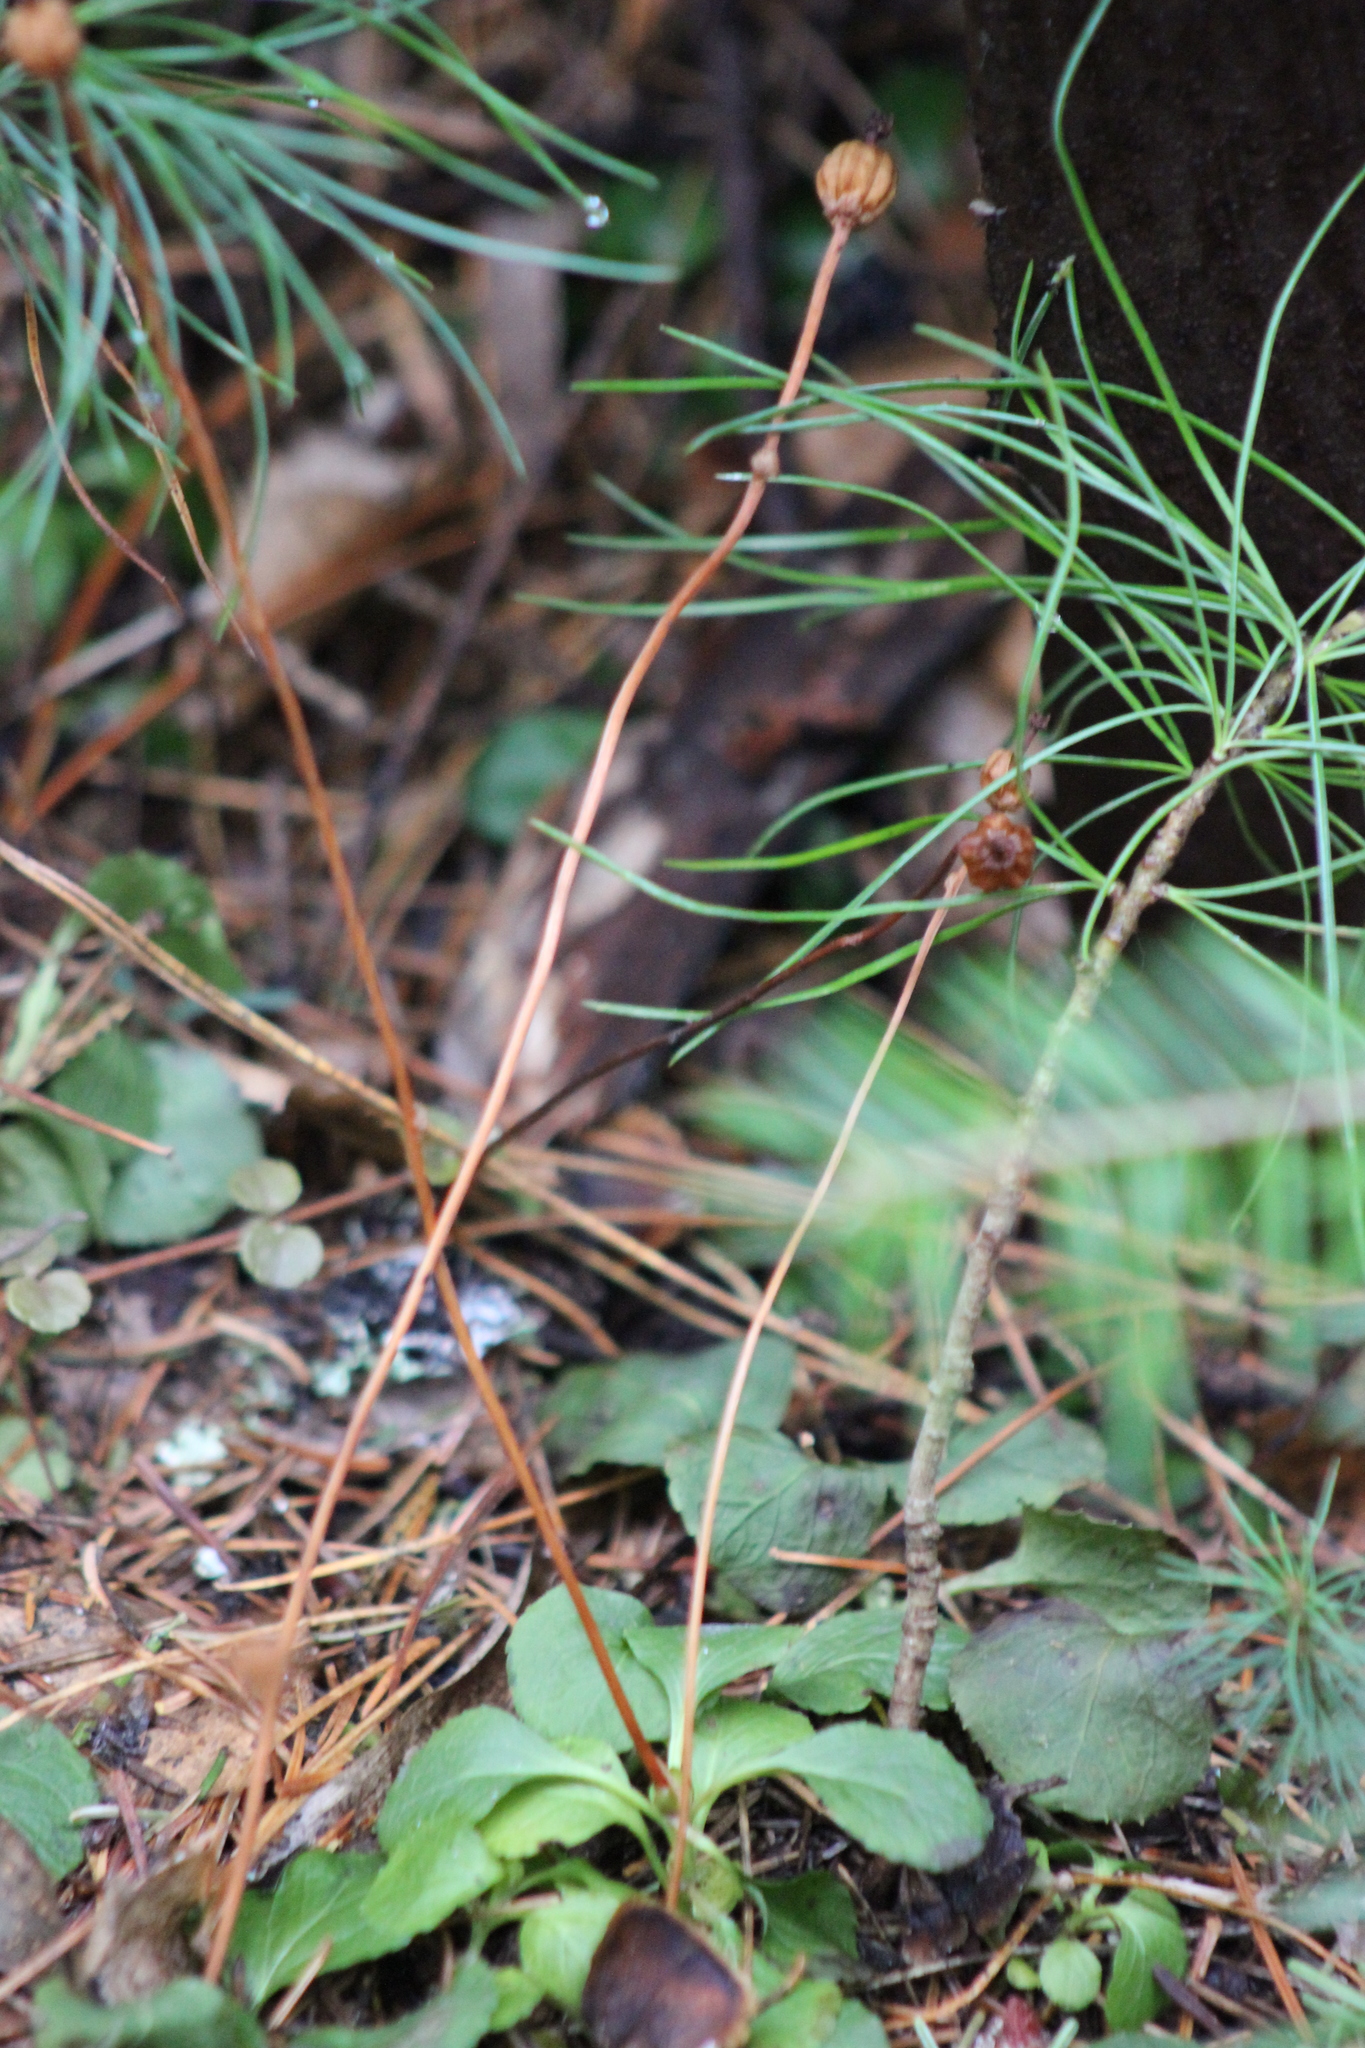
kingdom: Plantae
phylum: Tracheophyta
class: Magnoliopsida
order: Ericales
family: Ericaceae
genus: Moneses
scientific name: Moneses uniflora
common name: One-flowered wintergreen
